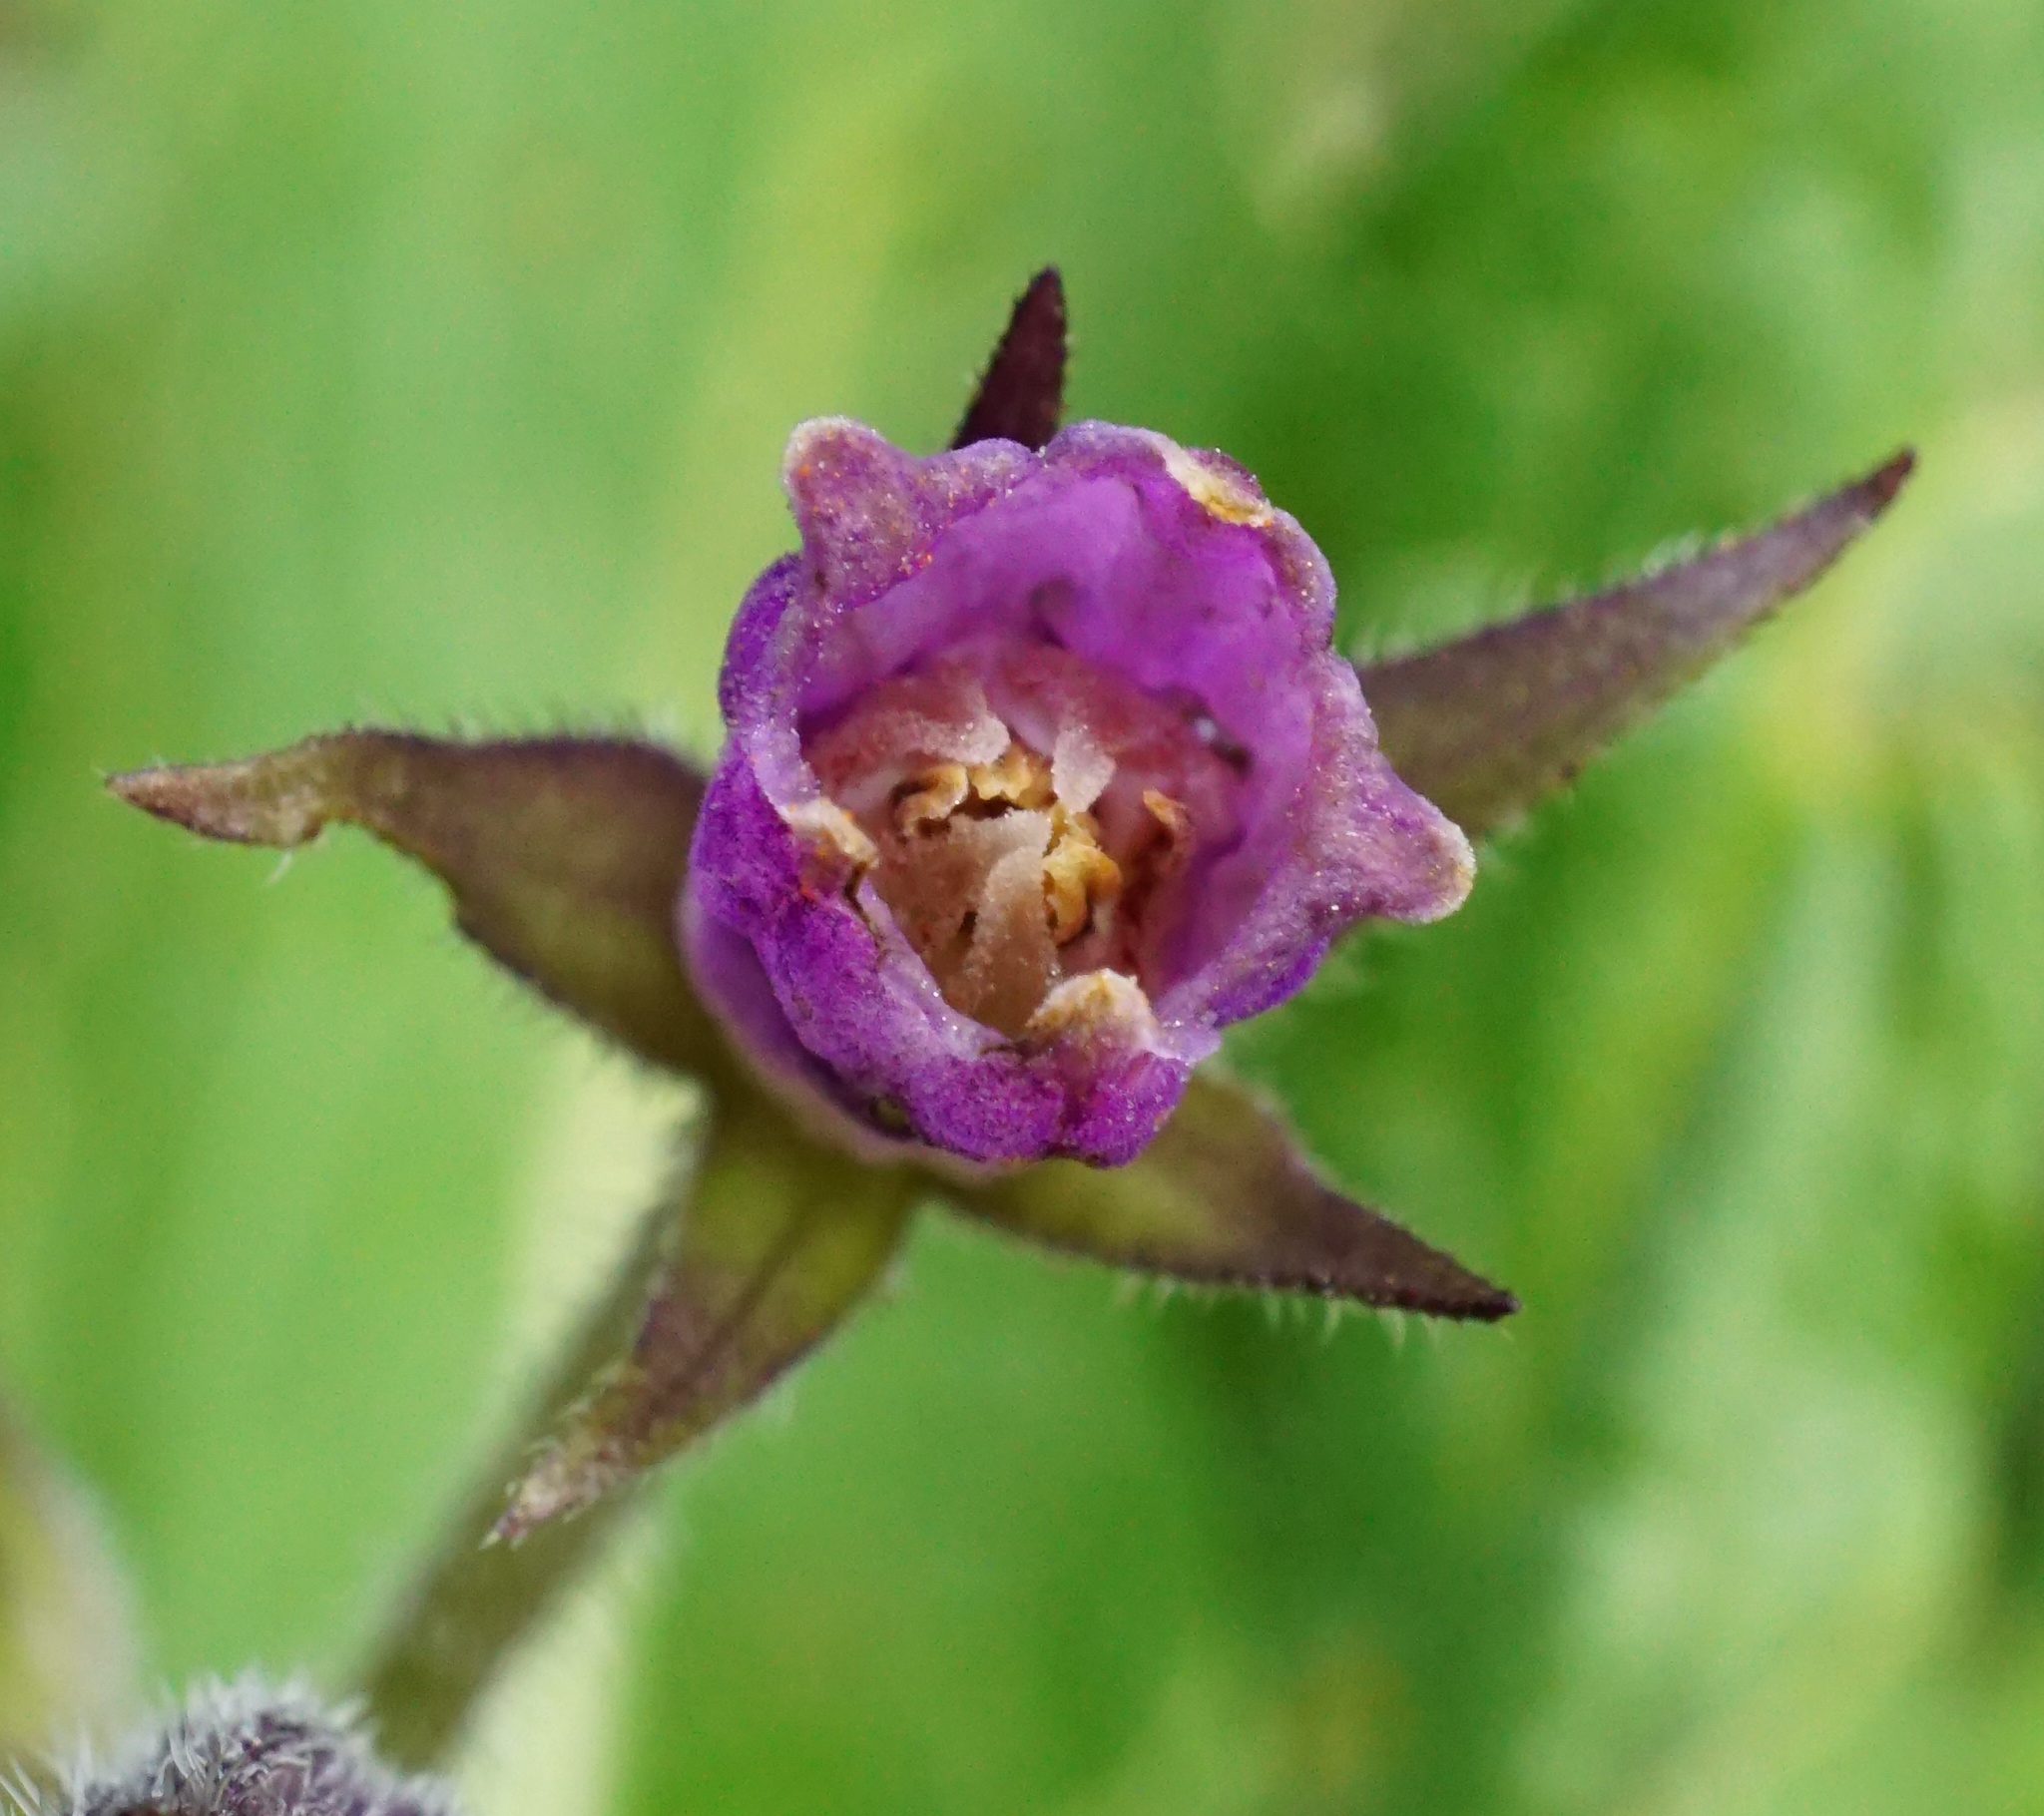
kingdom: Plantae
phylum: Tracheophyta
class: Magnoliopsida
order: Boraginales
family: Boraginaceae
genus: Symphytum
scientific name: Symphytum officinale
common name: Common comfrey
